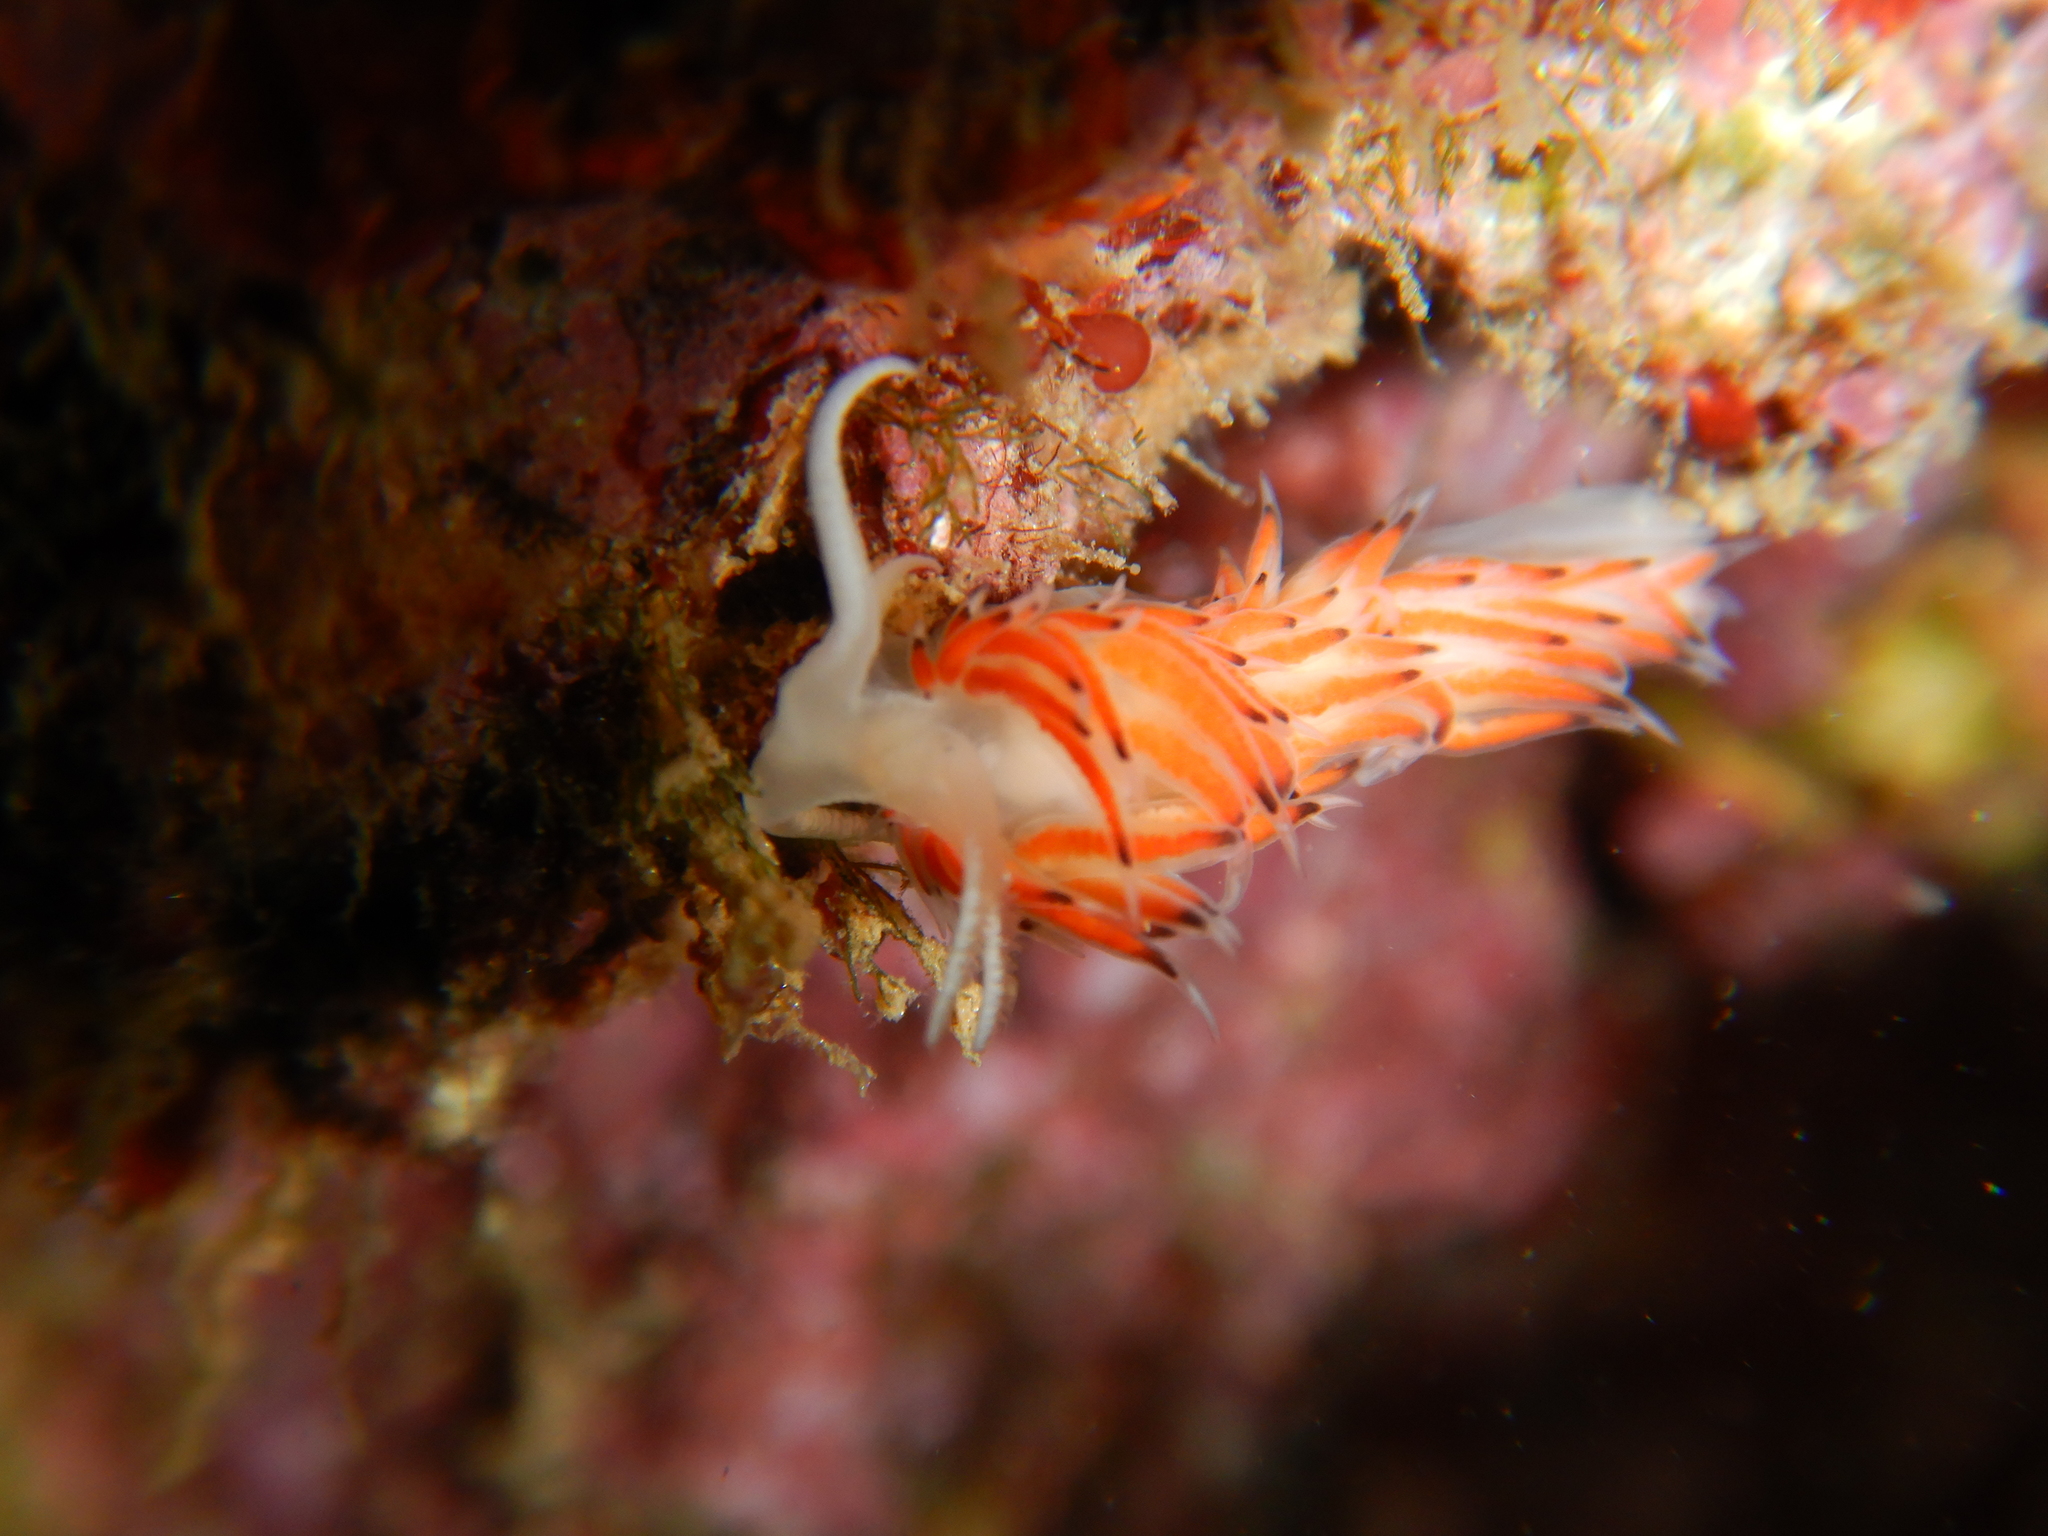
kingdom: Animalia
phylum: Mollusca
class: Gastropoda
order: Nudibranchia
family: Facelinidae
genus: Caloria
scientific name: Caloria quatrefagesi
